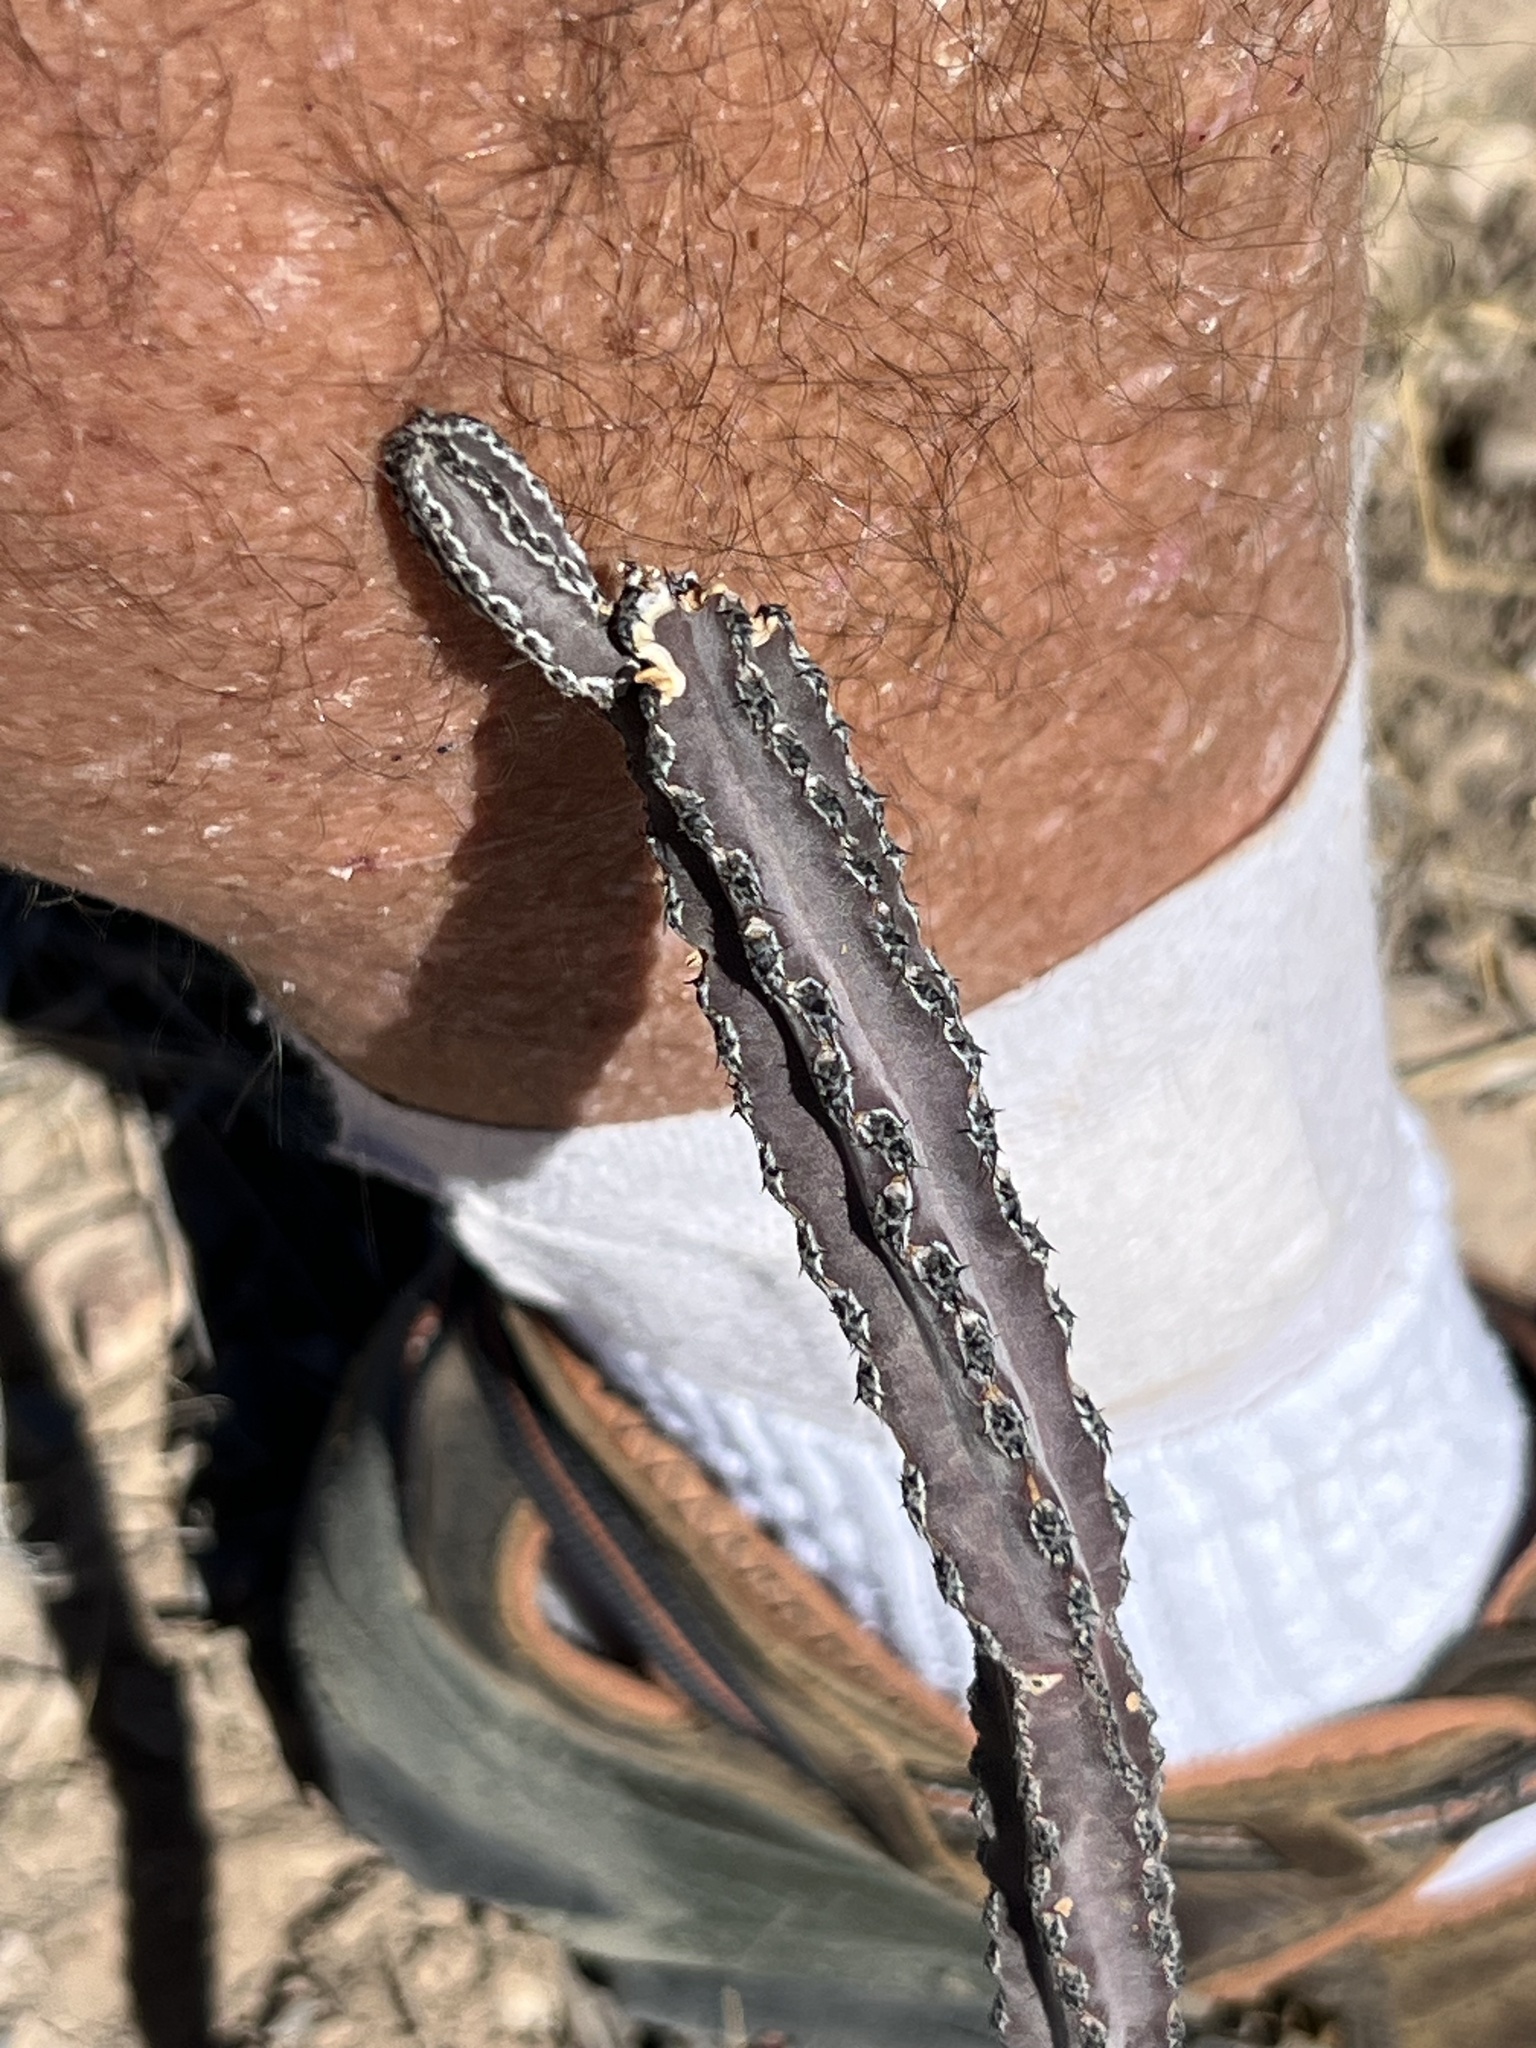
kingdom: Plantae
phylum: Tracheophyta
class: Magnoliopsida
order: Caryophyllales
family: Cactaceae
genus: Peniocereus
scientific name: Peniocereus greggii
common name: Desert night-blooming cereus
